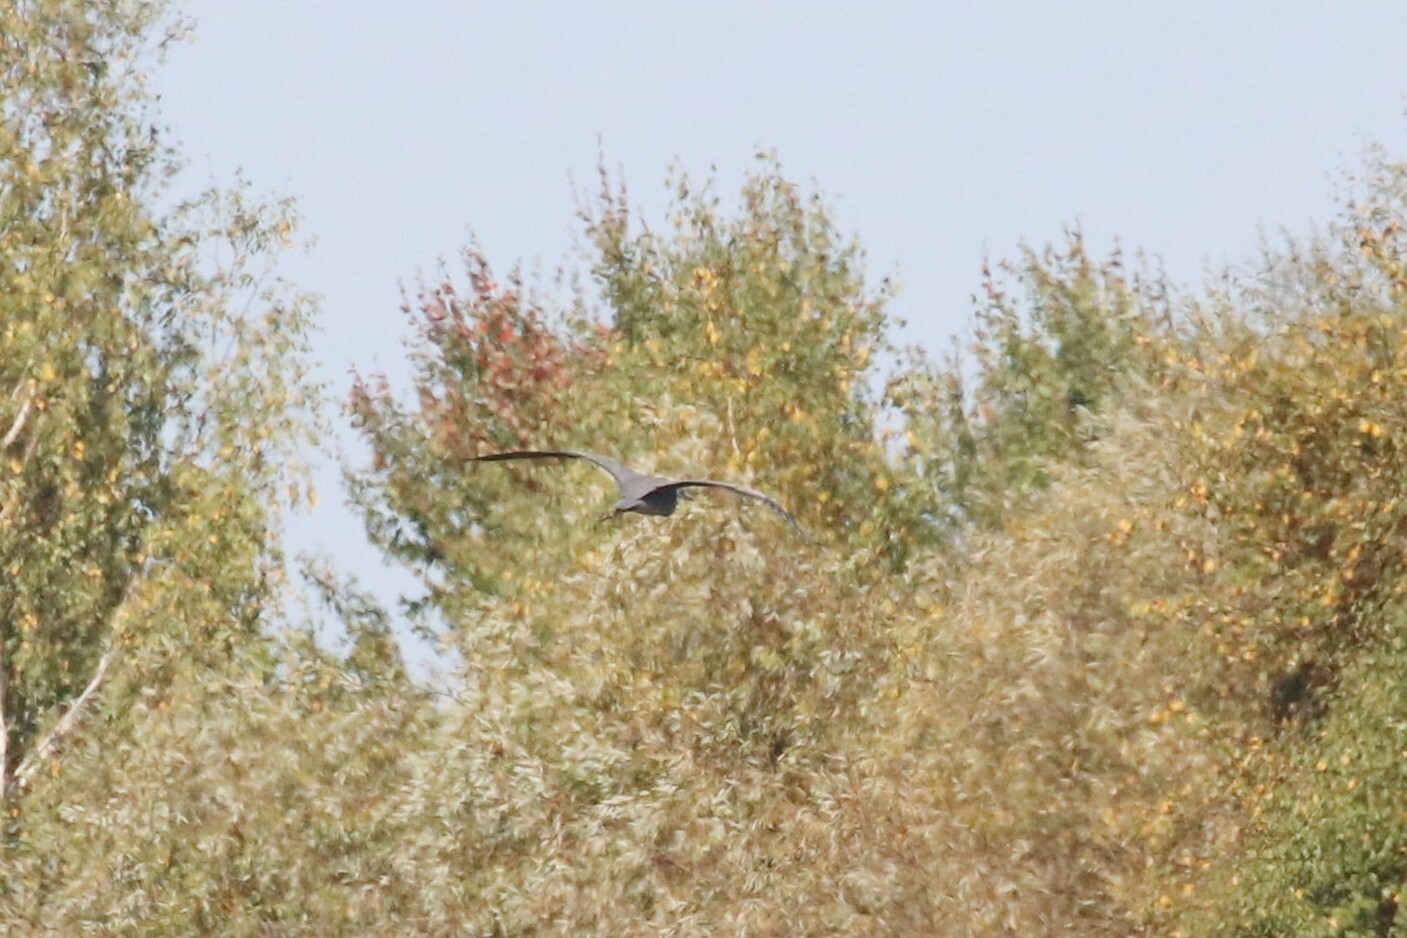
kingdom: Animalia
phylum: Chordata
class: Aves
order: Pelecaniformes
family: Ardeidae
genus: Ardea
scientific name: Ardea cinerea
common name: Grey heron
